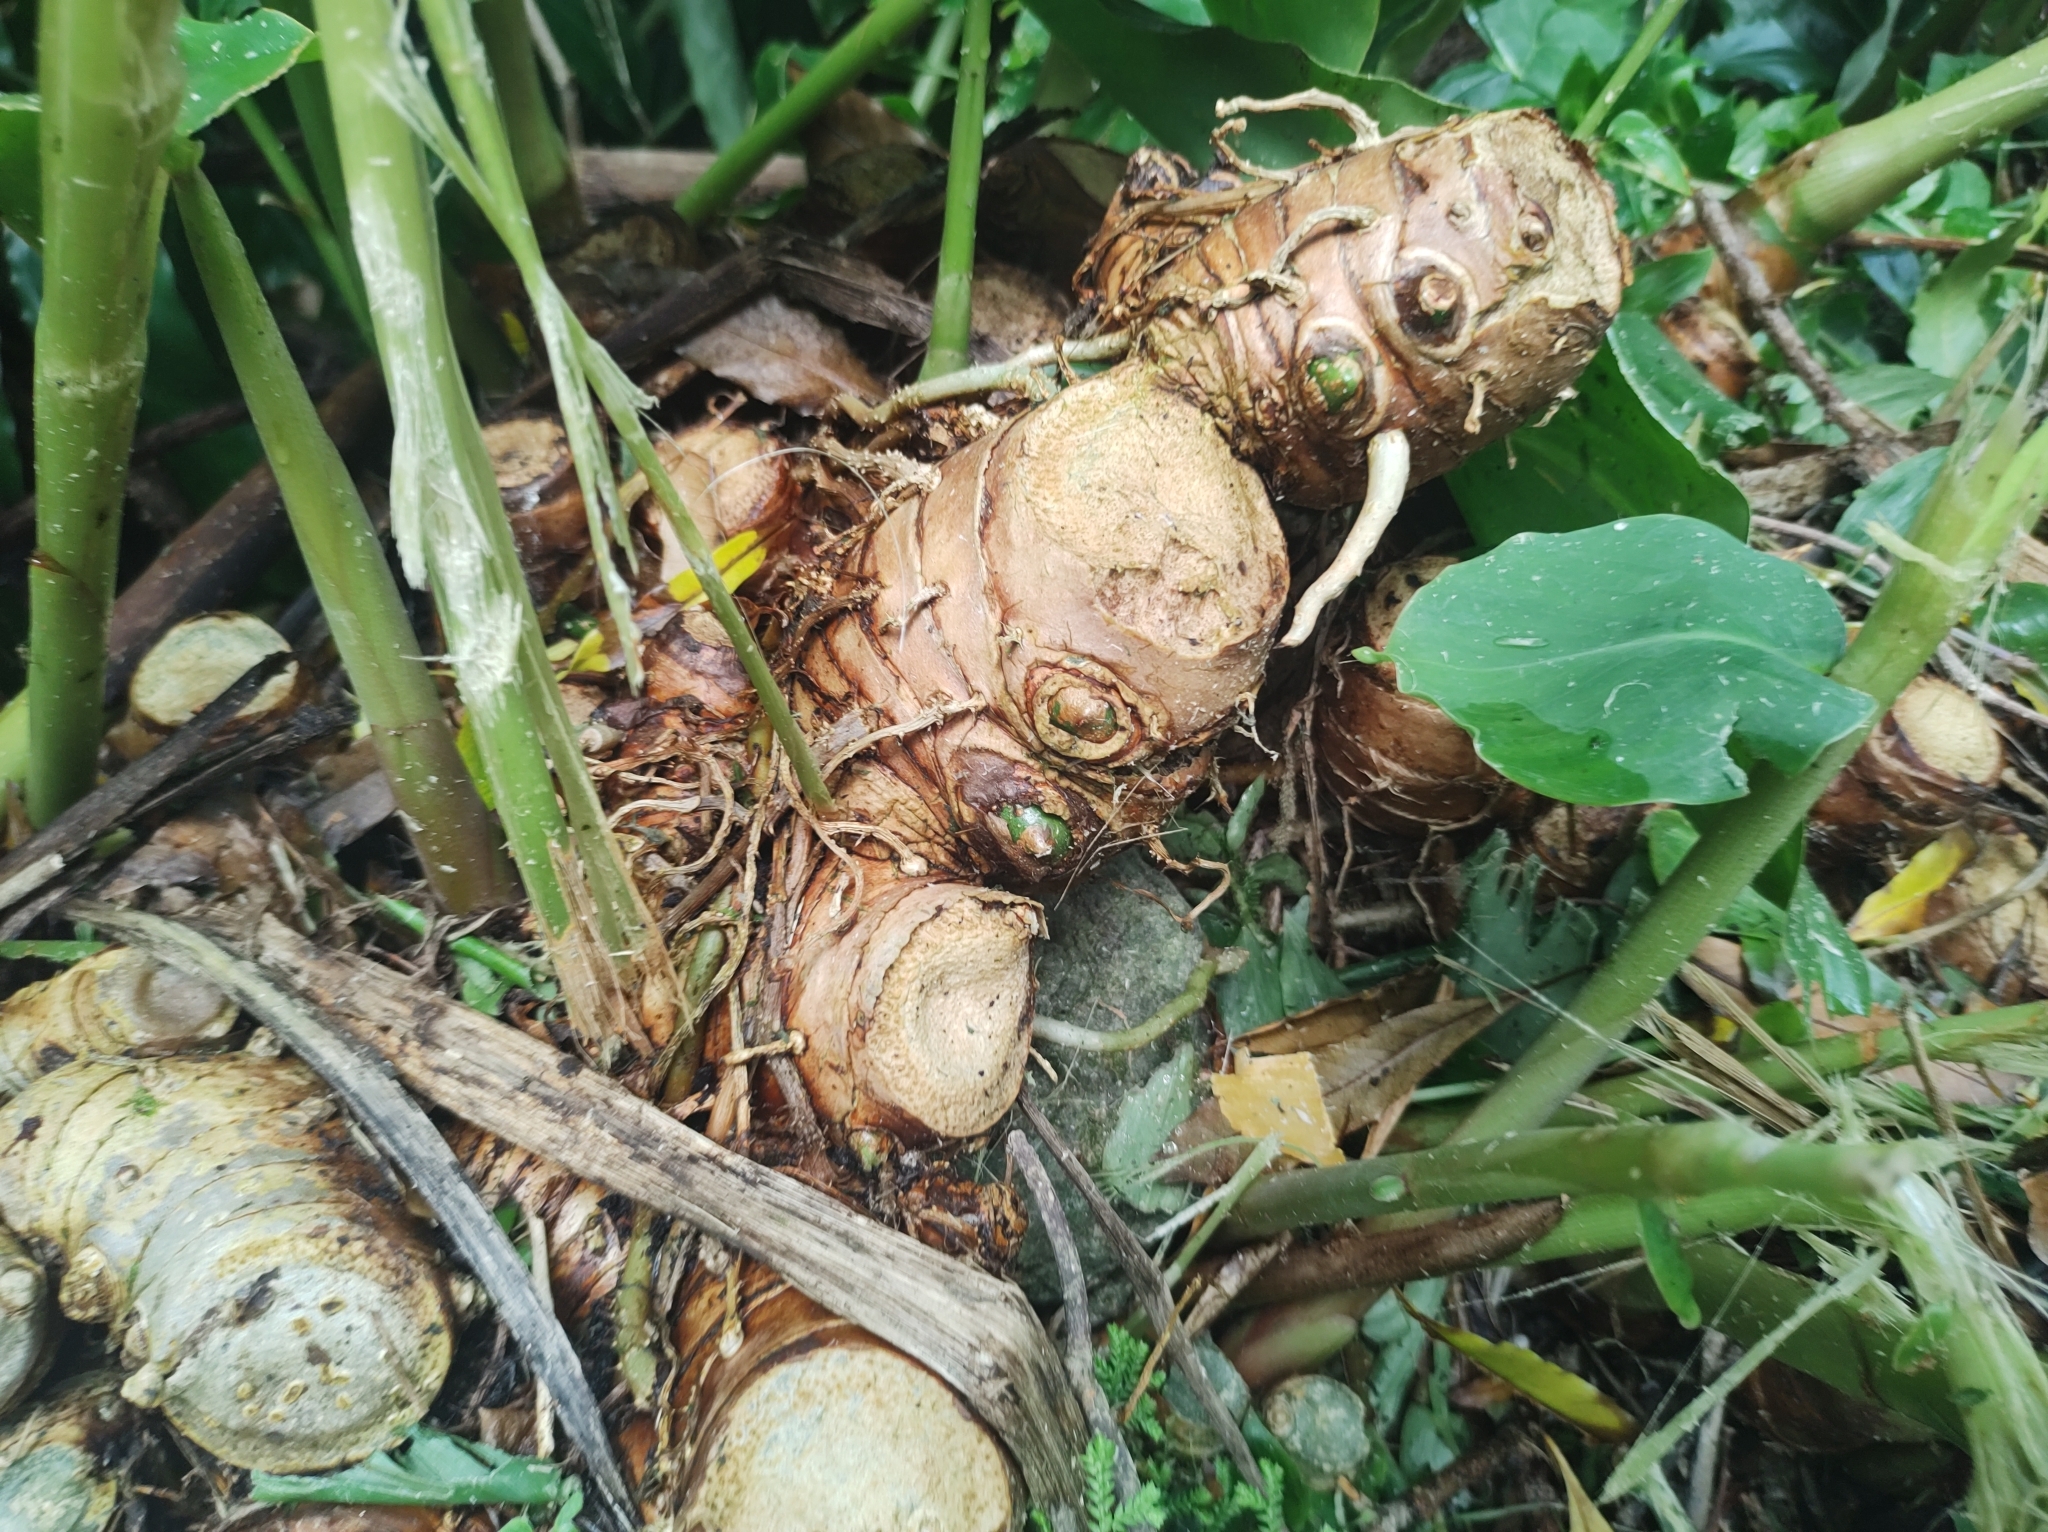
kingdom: Plantae
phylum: Tracheophyta
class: Liliopsida
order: Zingiberales
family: Zingiberaceae
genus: Hedychium
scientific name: Hedychium gardnerianum
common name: Himalayan ginger
